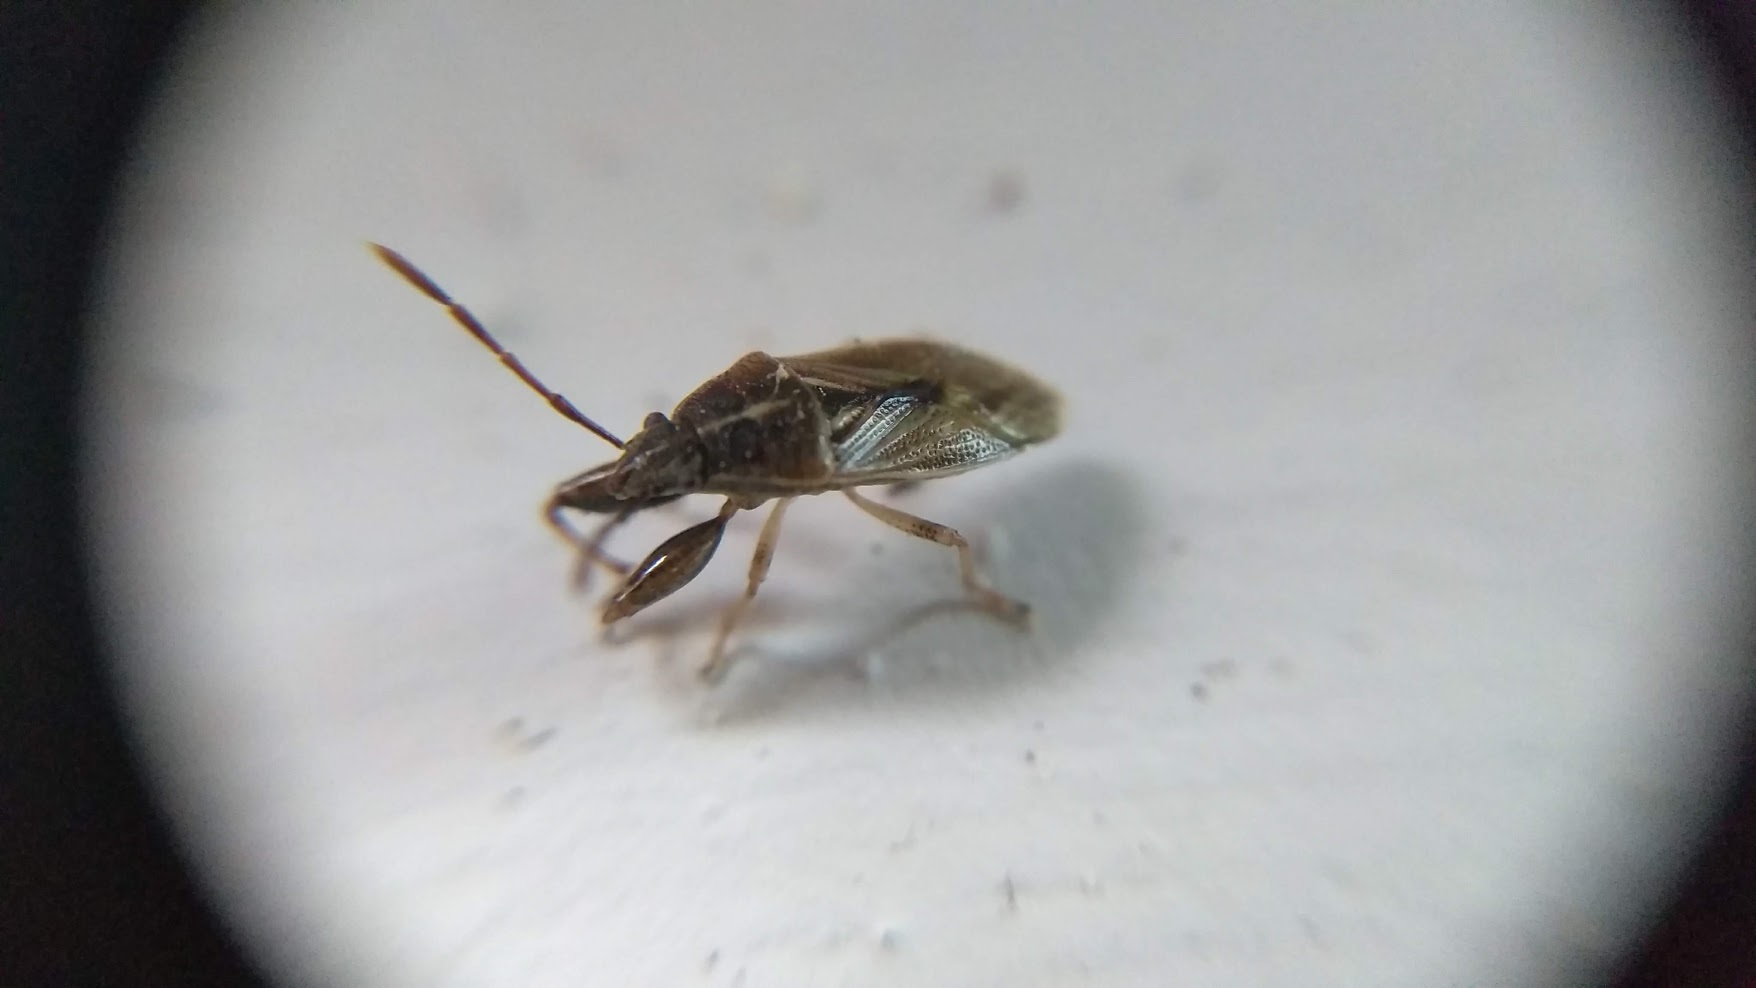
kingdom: Animalia
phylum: Arthropoda
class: Insecta
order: Hemiptera
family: Pachygronthidae
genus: Oedancala
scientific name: Oedancala dorsalis
